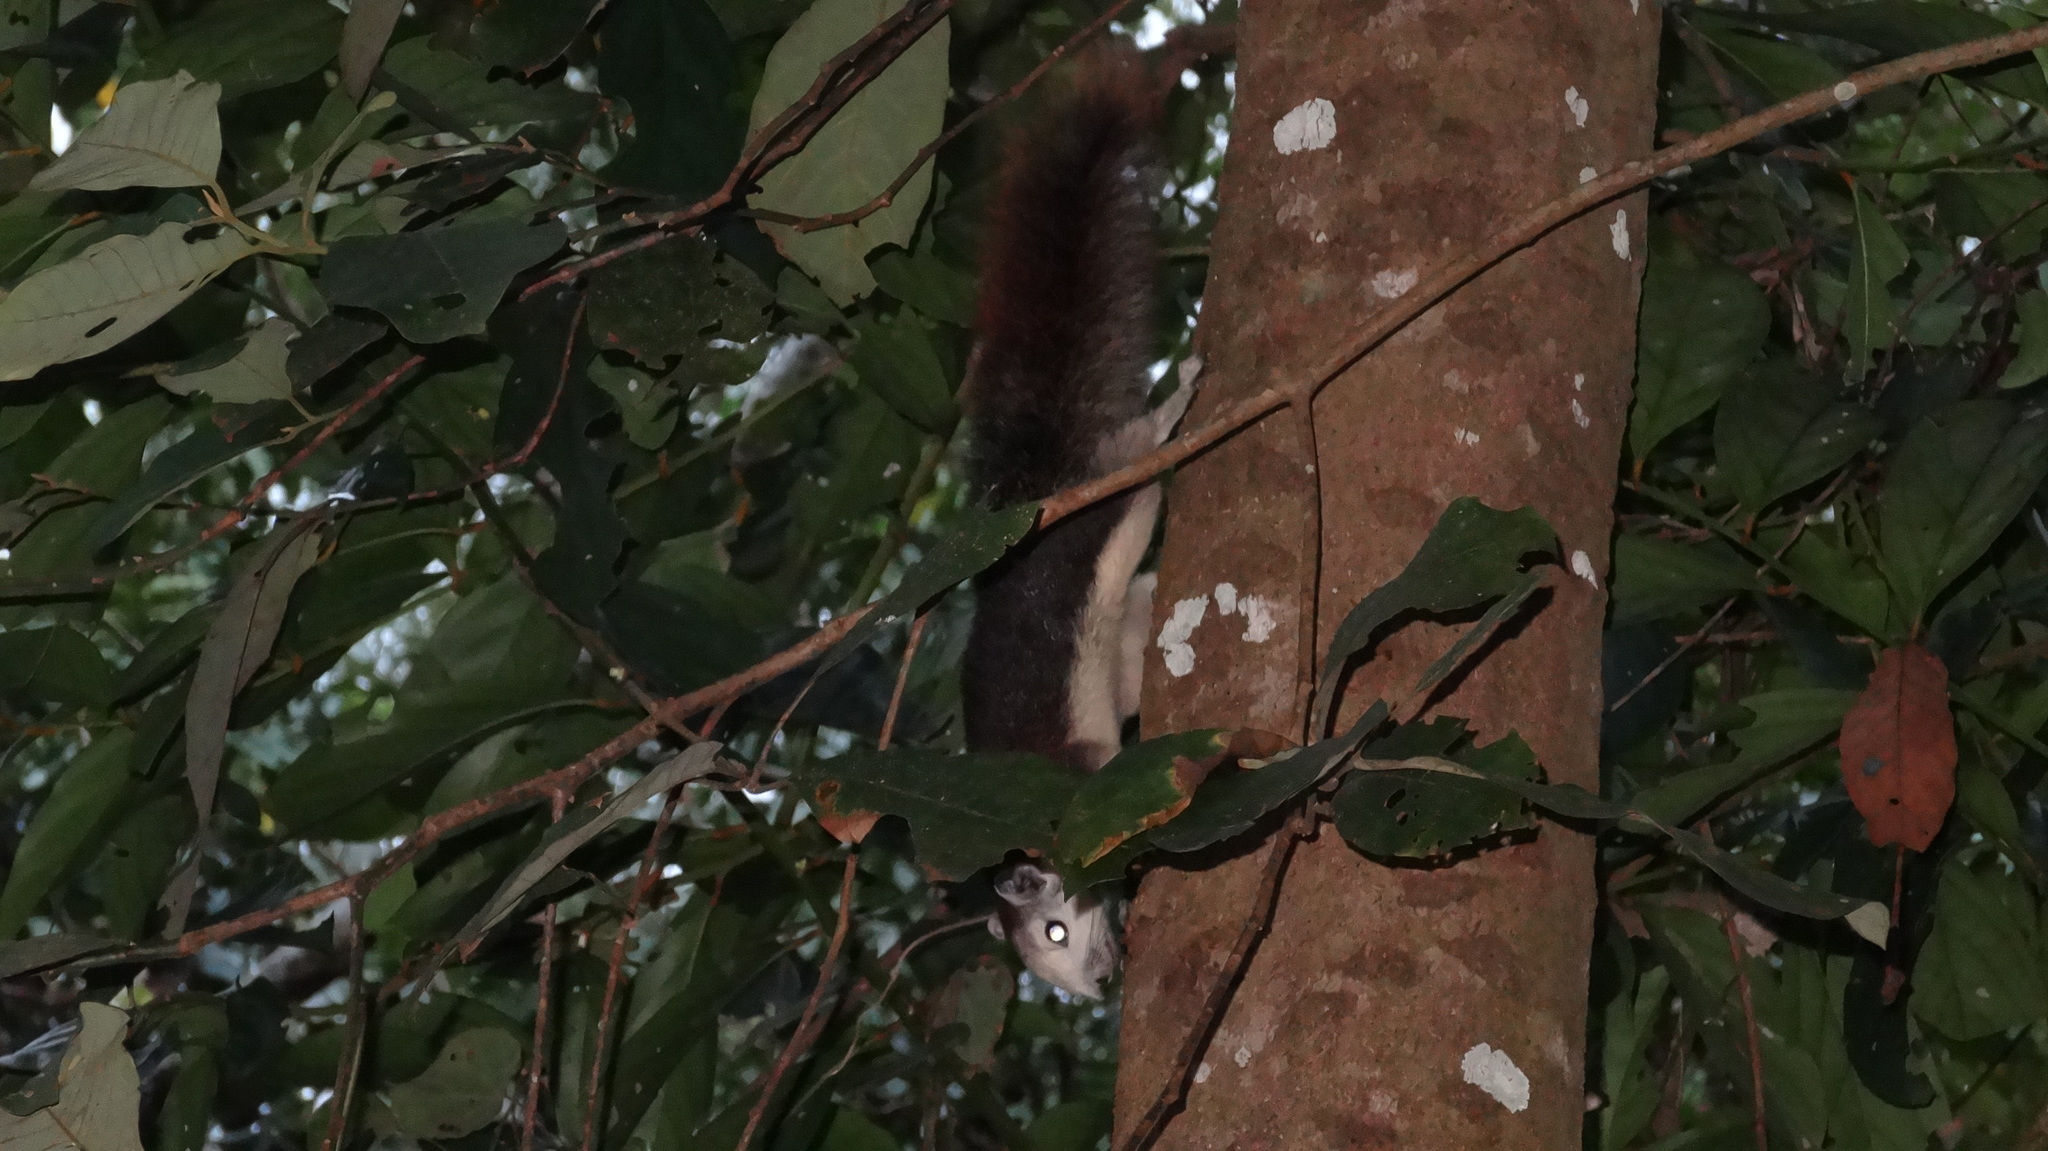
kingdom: Animalia
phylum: Chordata
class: Mammalia
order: Rodentia
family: Sciuridae
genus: Callosciurus
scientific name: Callosciurus finlaysonii
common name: Finlayson's squirrel
